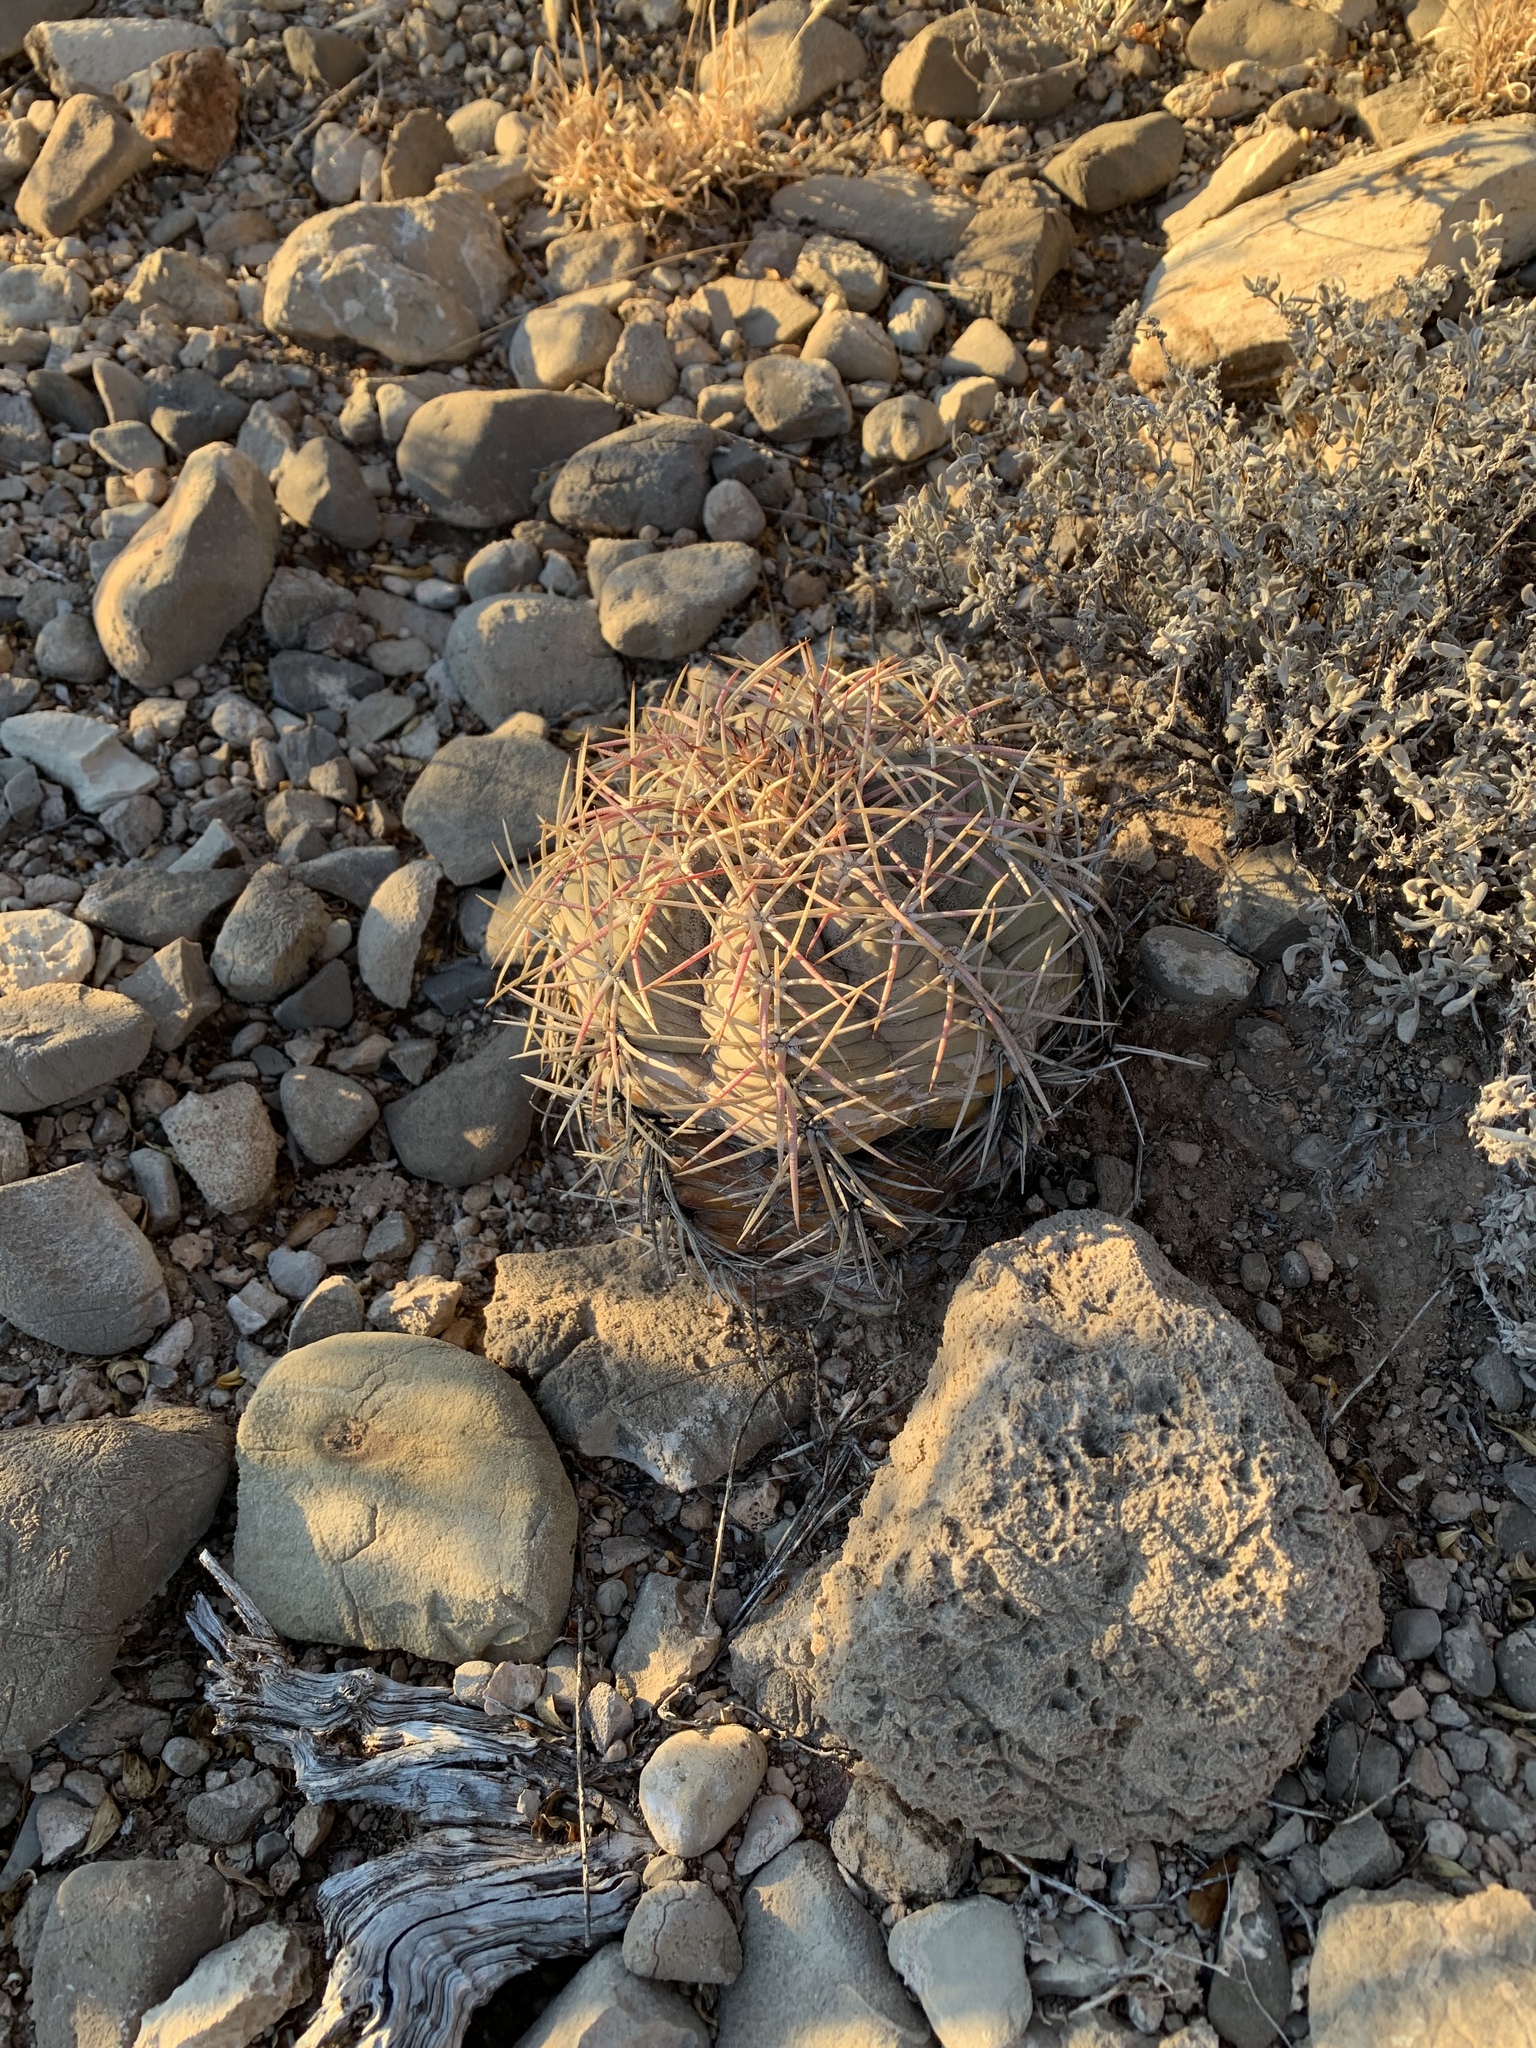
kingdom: Plantae
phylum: Tracheophyta
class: Magnoliopsida
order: Caryophyllales
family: Cactaceae
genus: Echinocactus
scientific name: Echinocactus horizonthalonius
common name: Devilshead
